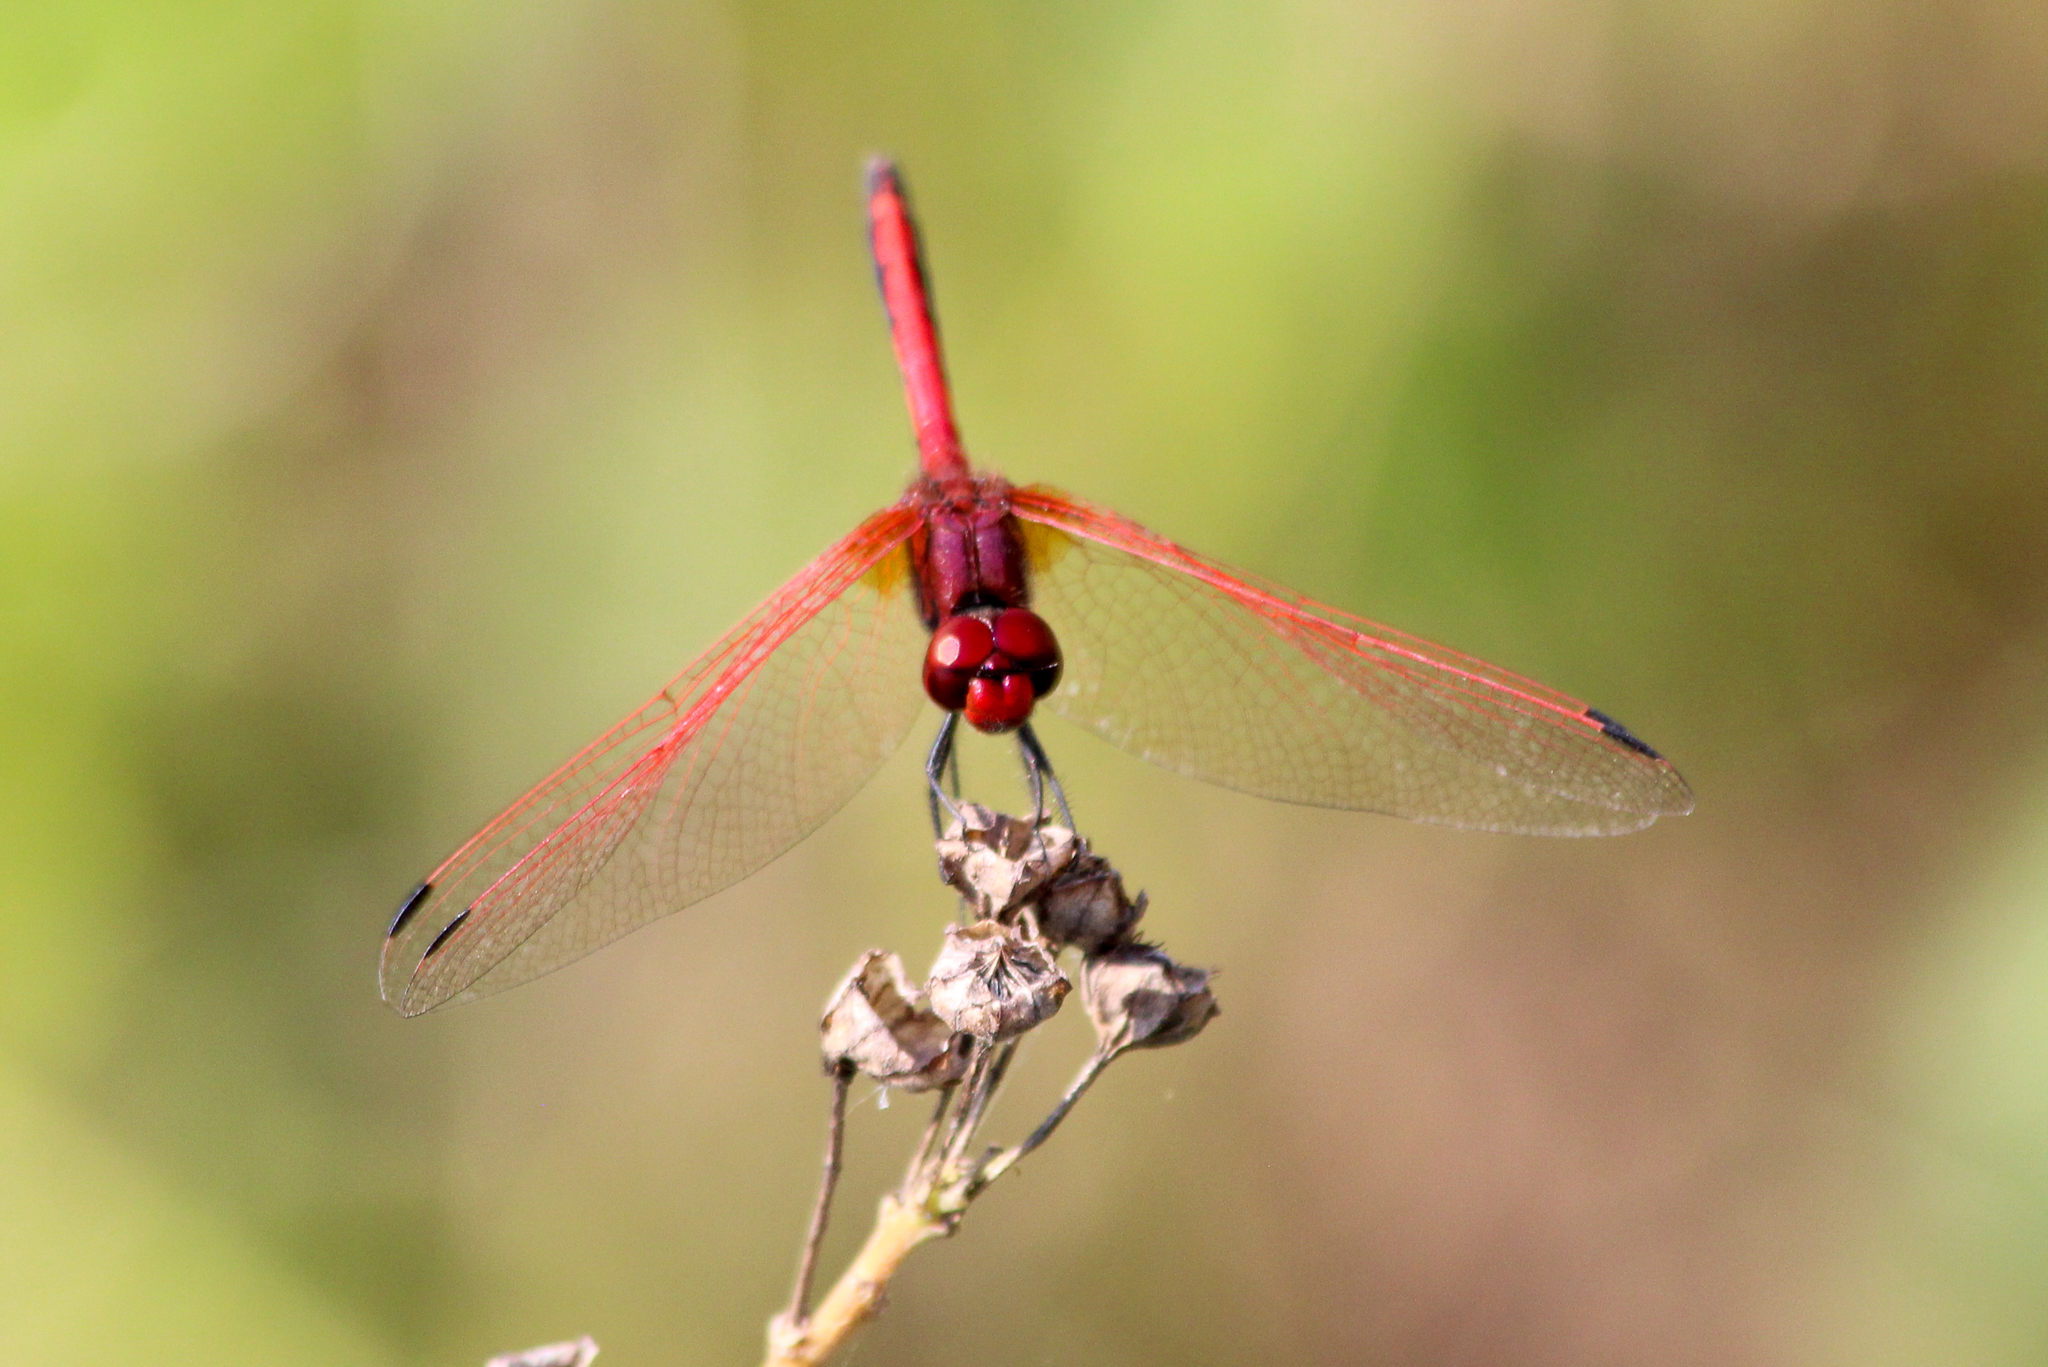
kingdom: Animalia
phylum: Arthropoda
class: Insecta
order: Odonata
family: Libellulidae
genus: Trithemis
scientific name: Trithemis arteriosa
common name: Red-veined dropwing
